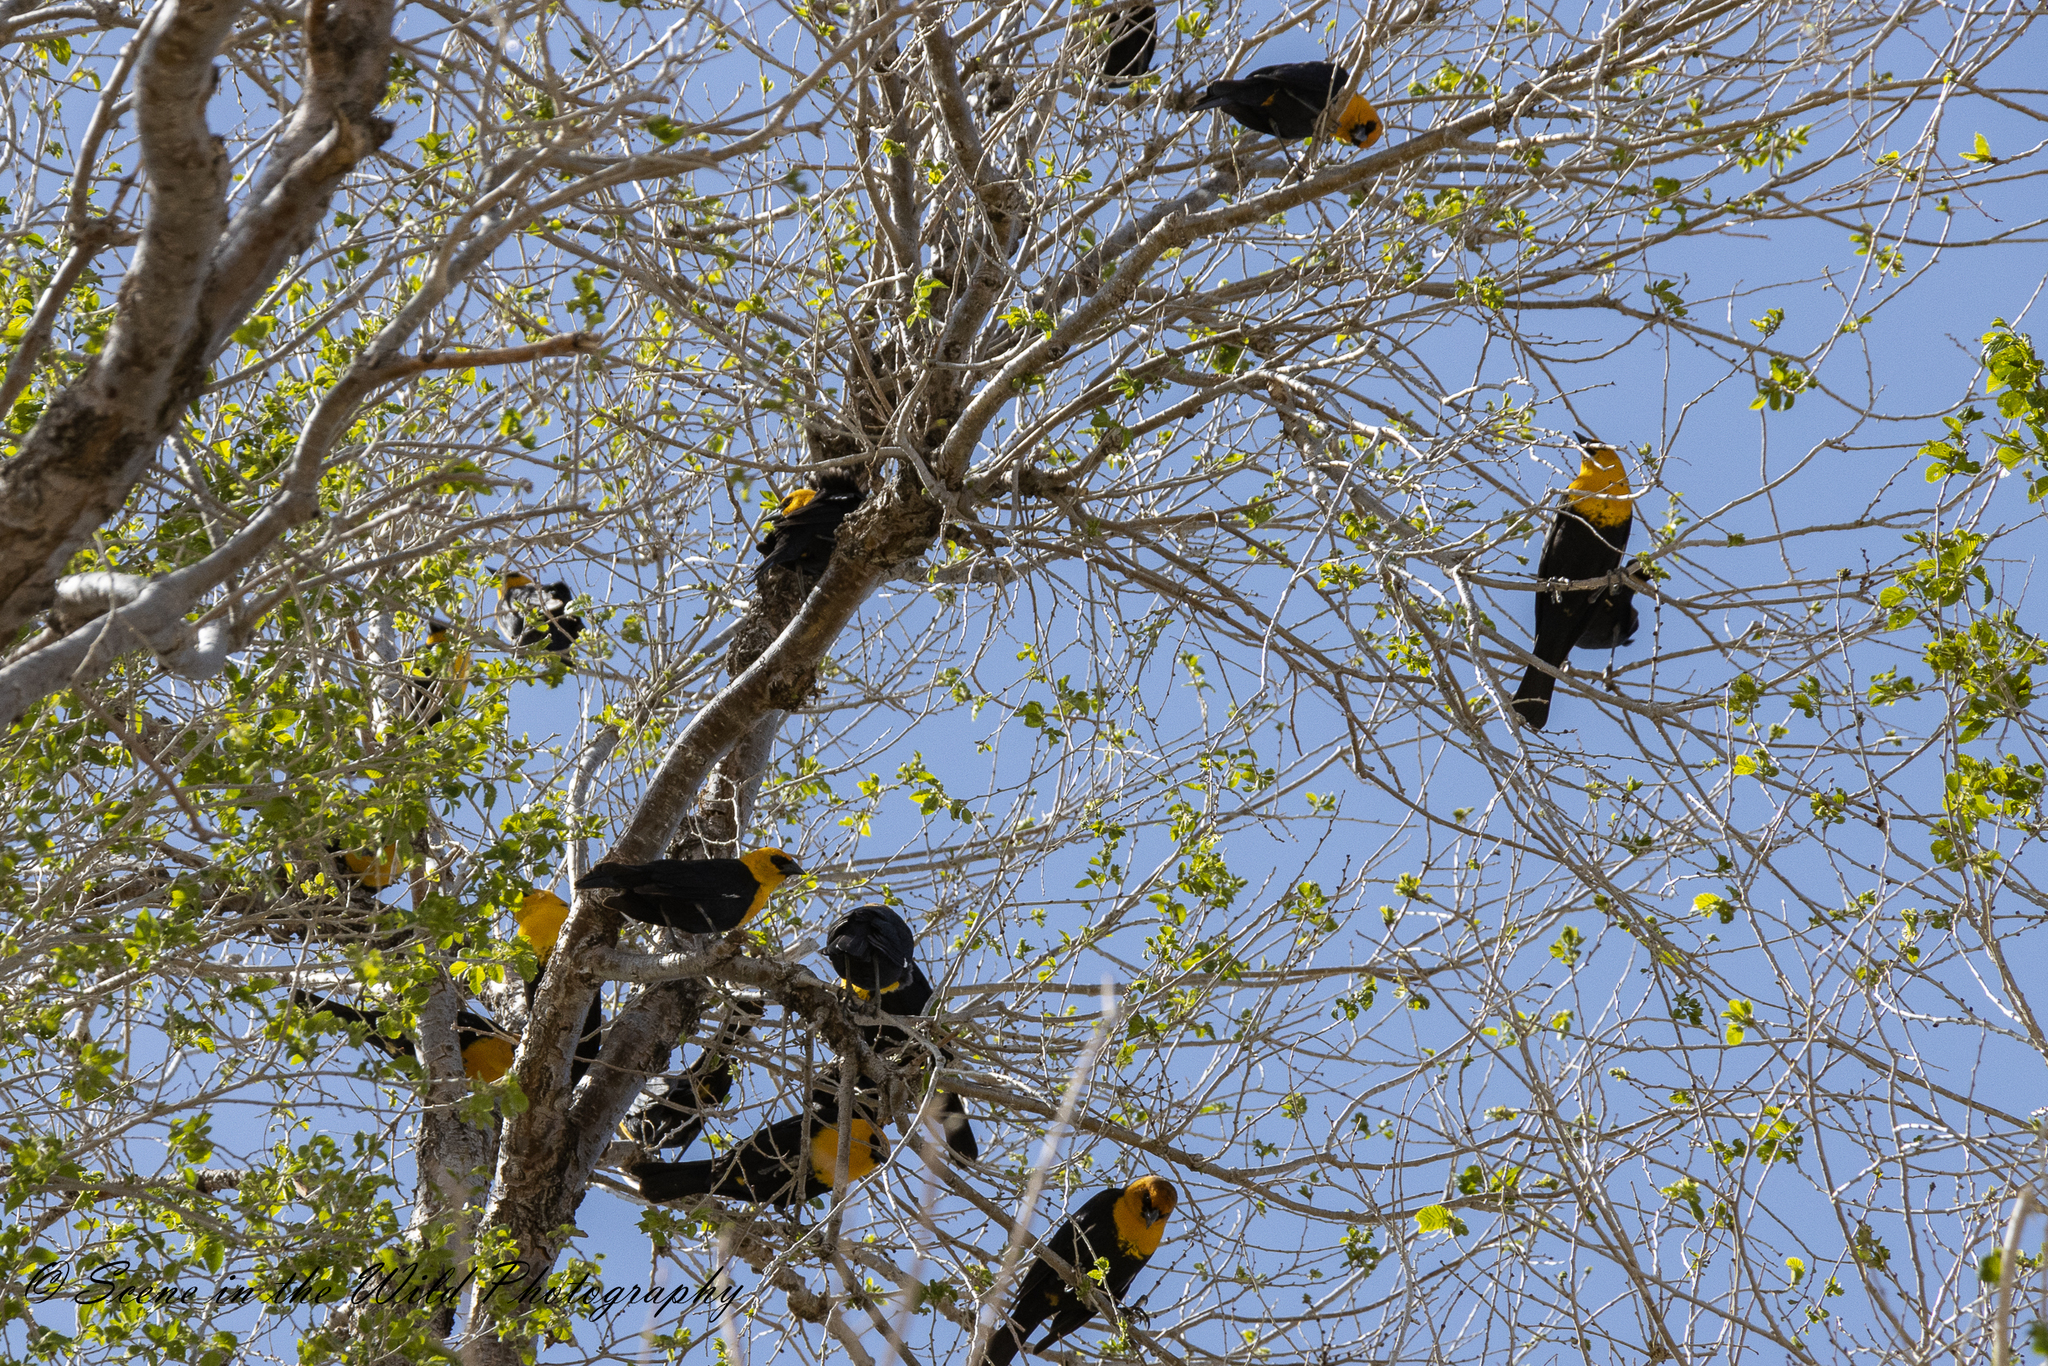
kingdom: Animalia
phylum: Chordata
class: Aves
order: Passeriformes
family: Icteridae
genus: Xanthocephalus
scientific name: Xanthocephalus xanthocephalus
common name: Yellow-headed blackbird
